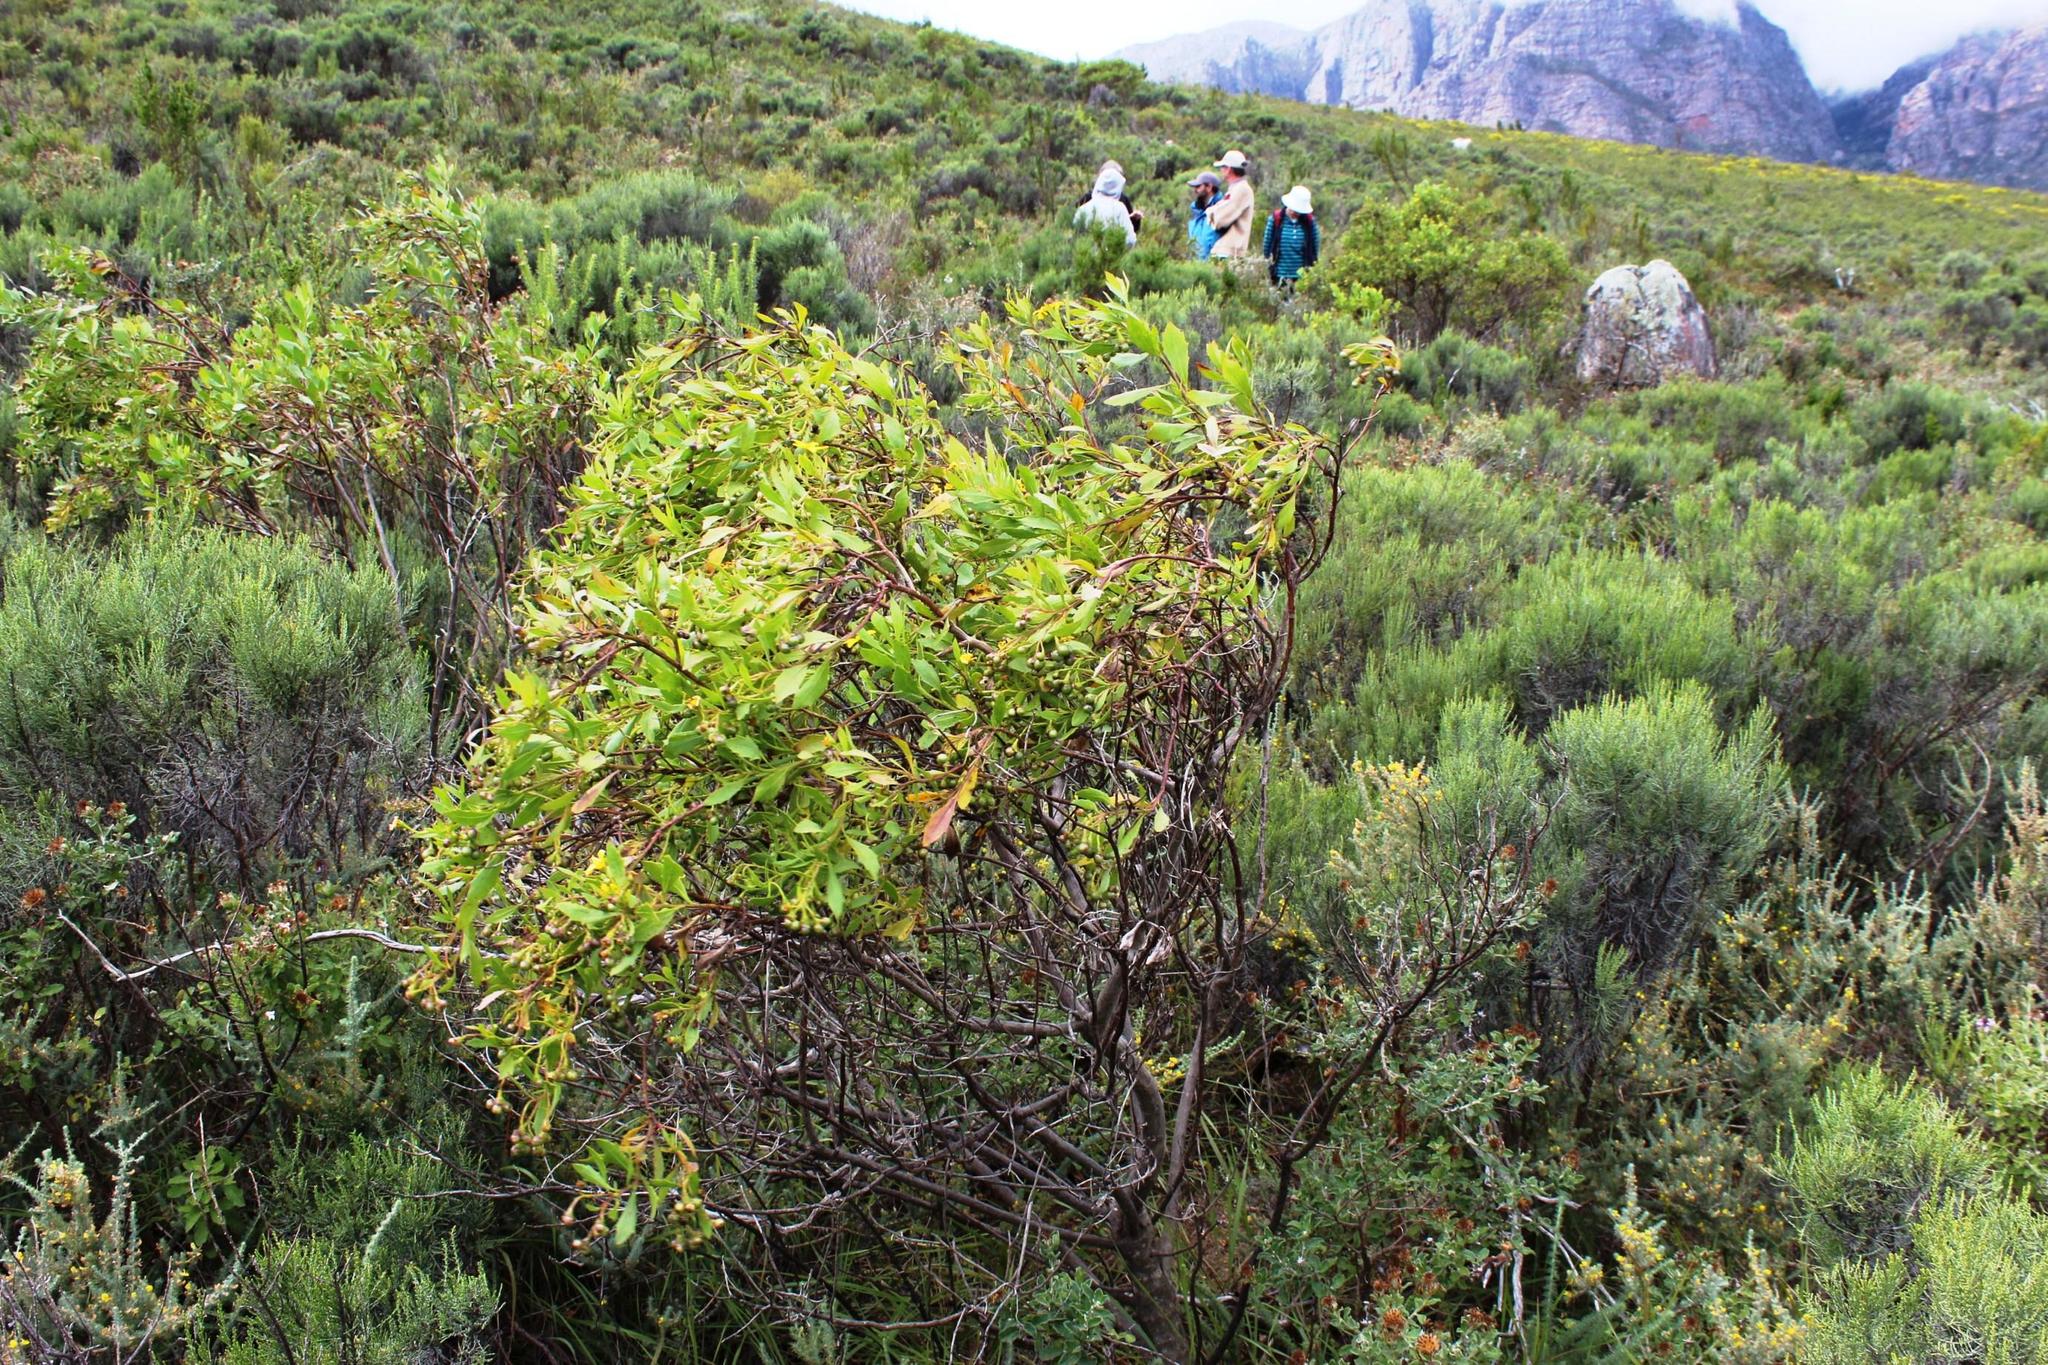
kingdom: Plantae
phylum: Tracheophyta
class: Magnoliopsida
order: Asterales
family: Asteraceae
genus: Osteospermum
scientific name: Osteospermum moniliferum
